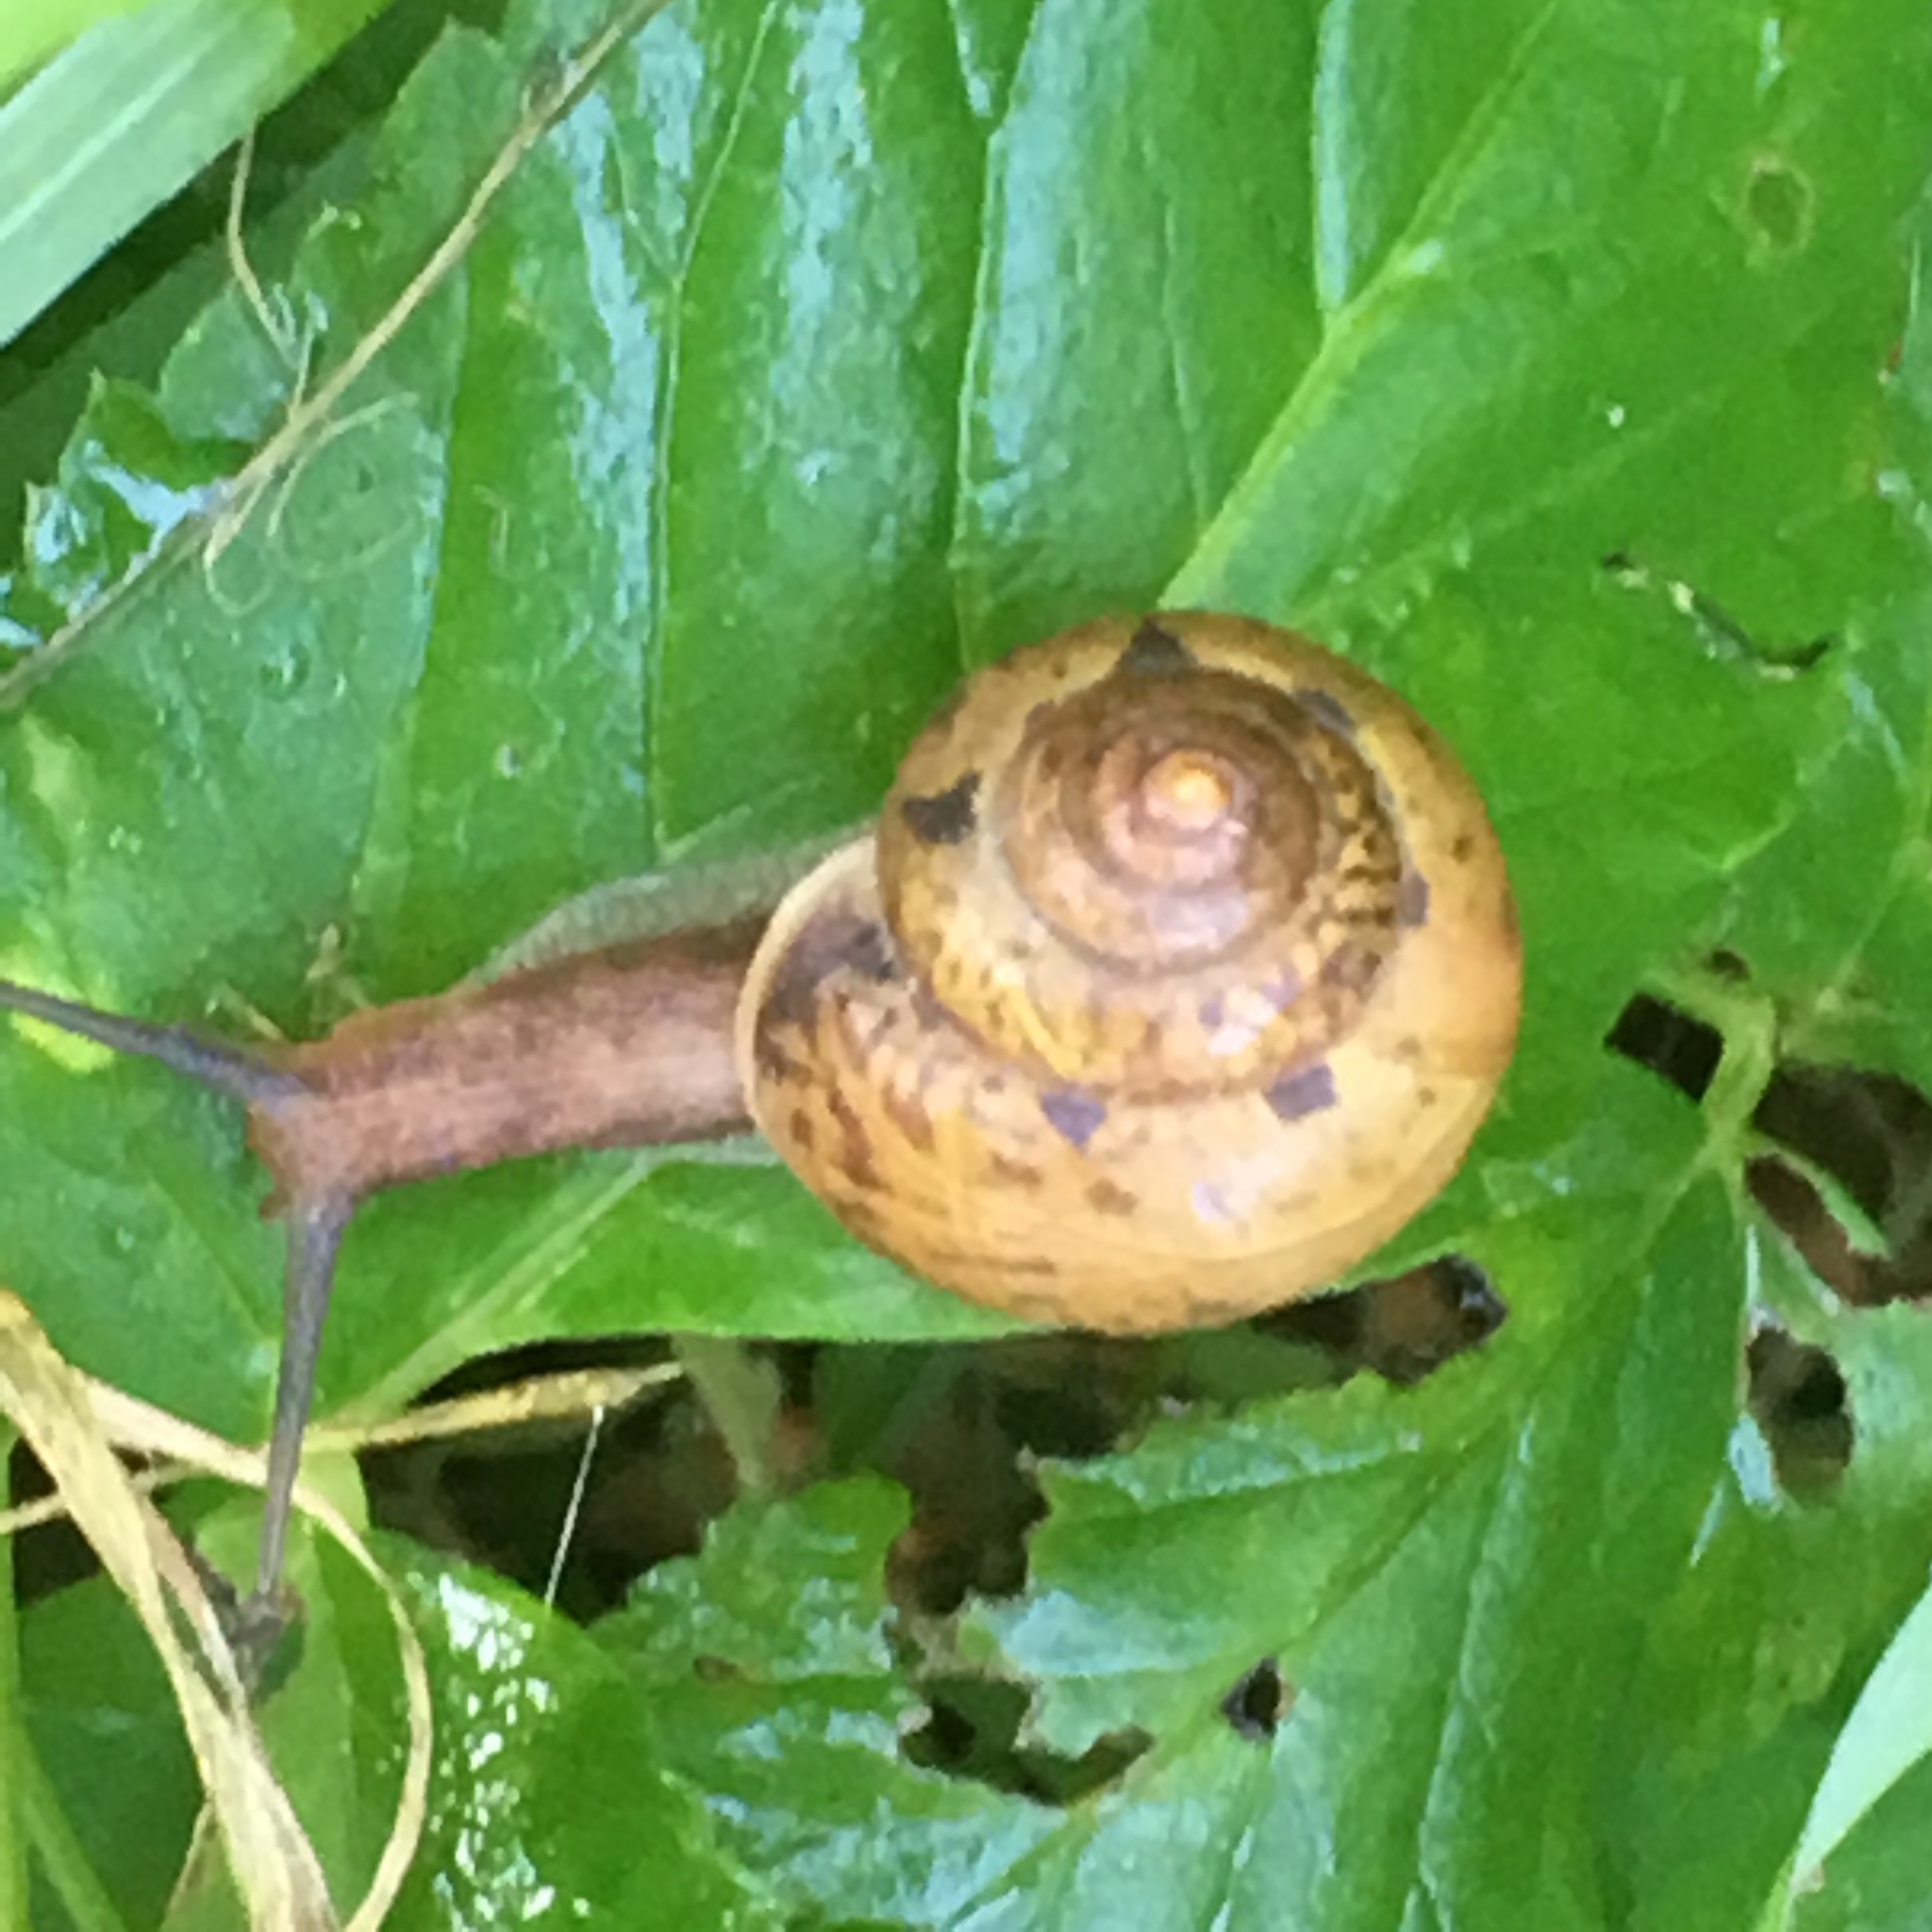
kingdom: Animalia
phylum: Mollusca
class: Gastropoda
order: Stylommatophora
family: Camaenidae
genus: Fruticicola
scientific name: Fruticicola fruticum
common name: Bush snail
